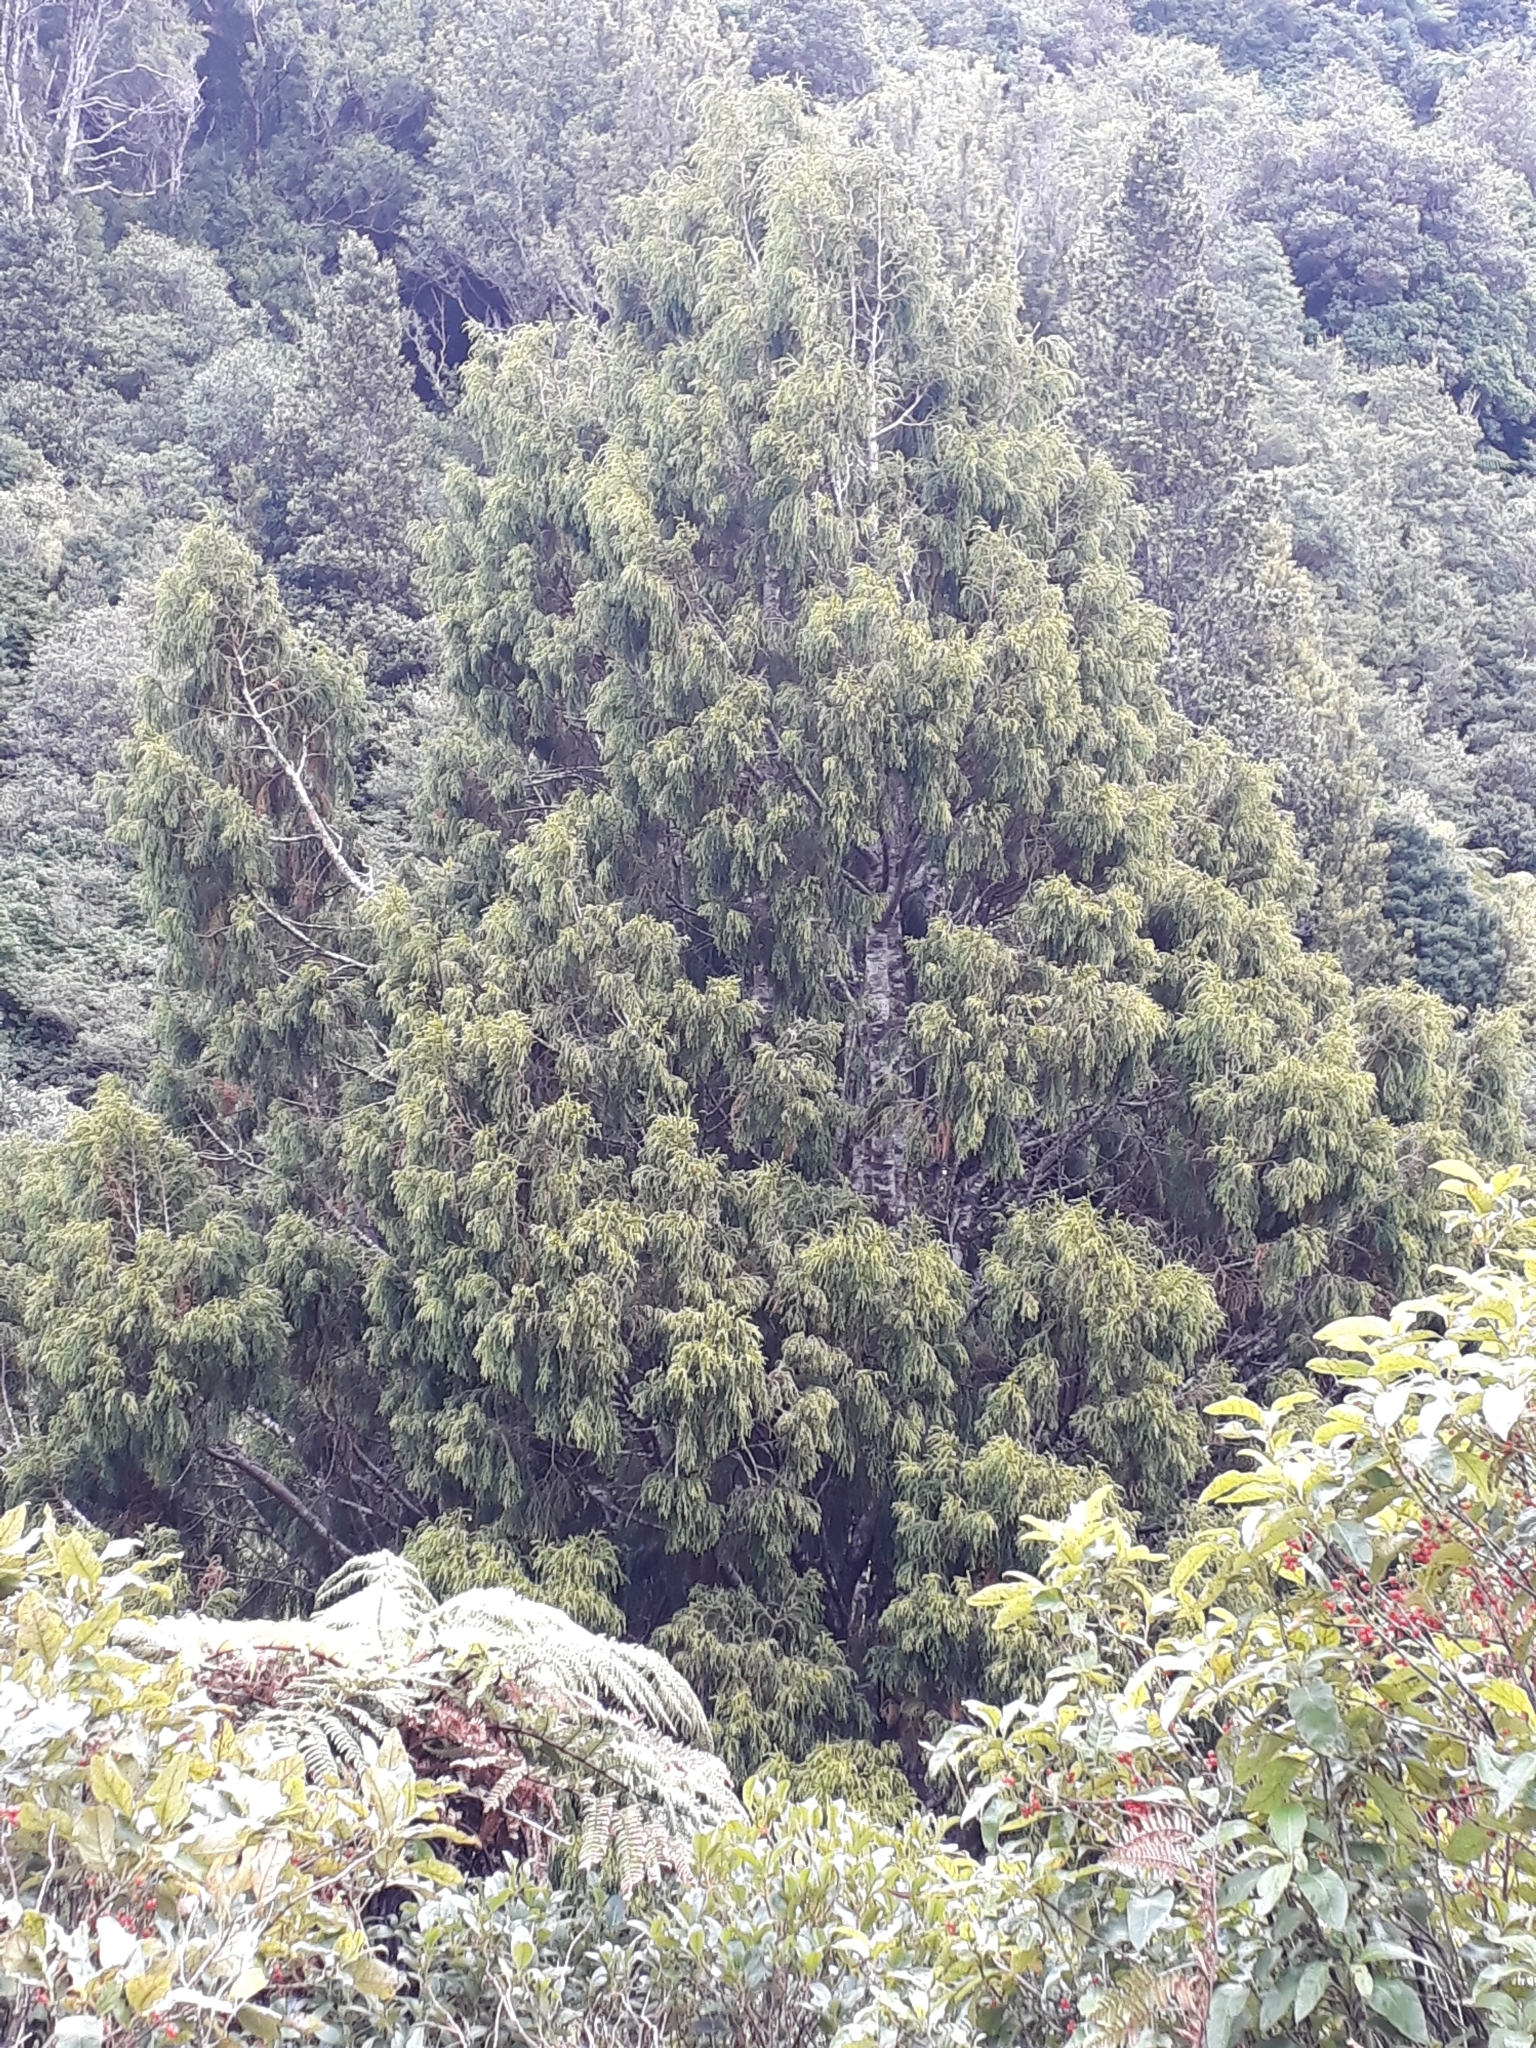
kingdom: Plantae
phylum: Tracheophyta
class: Pinopsida
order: Pinales
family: Podocarpaceae
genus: Dacrydium
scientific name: Dacrydium cupressinum
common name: Red pine
